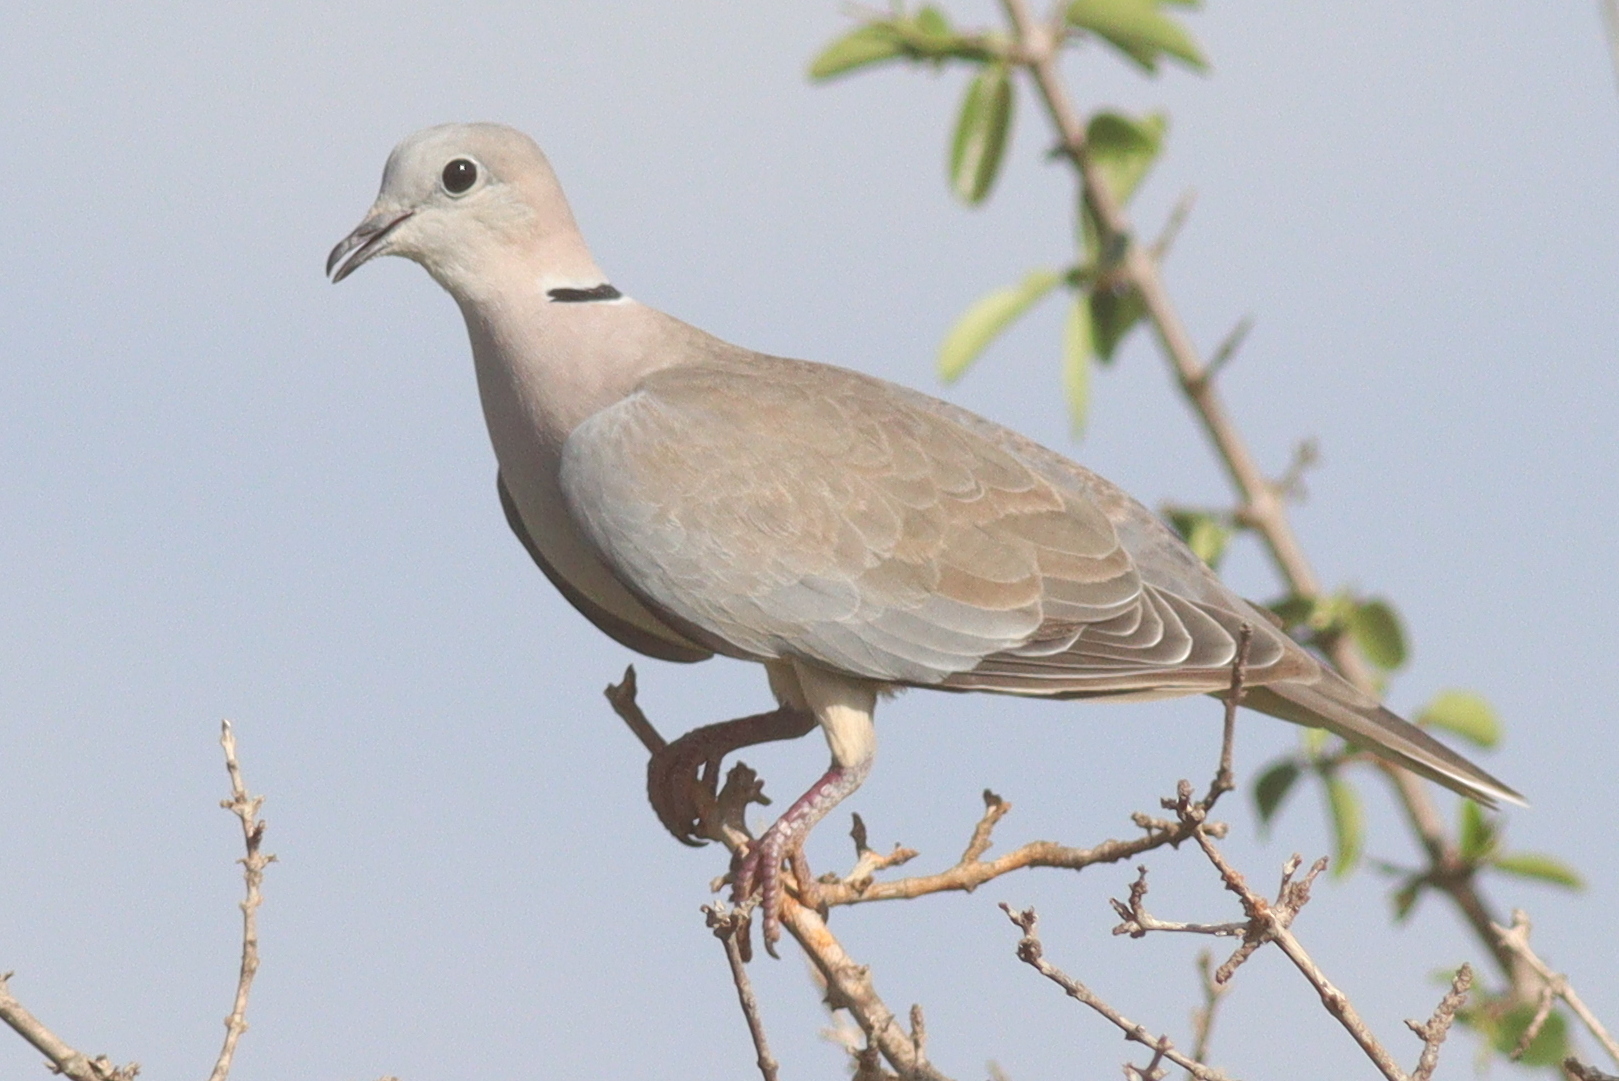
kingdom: Animalia
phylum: Chordata
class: Aves
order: Columbiformes
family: Columbidae
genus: Streptopelia
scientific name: Streptopelia capicola
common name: Ring-necked dove
